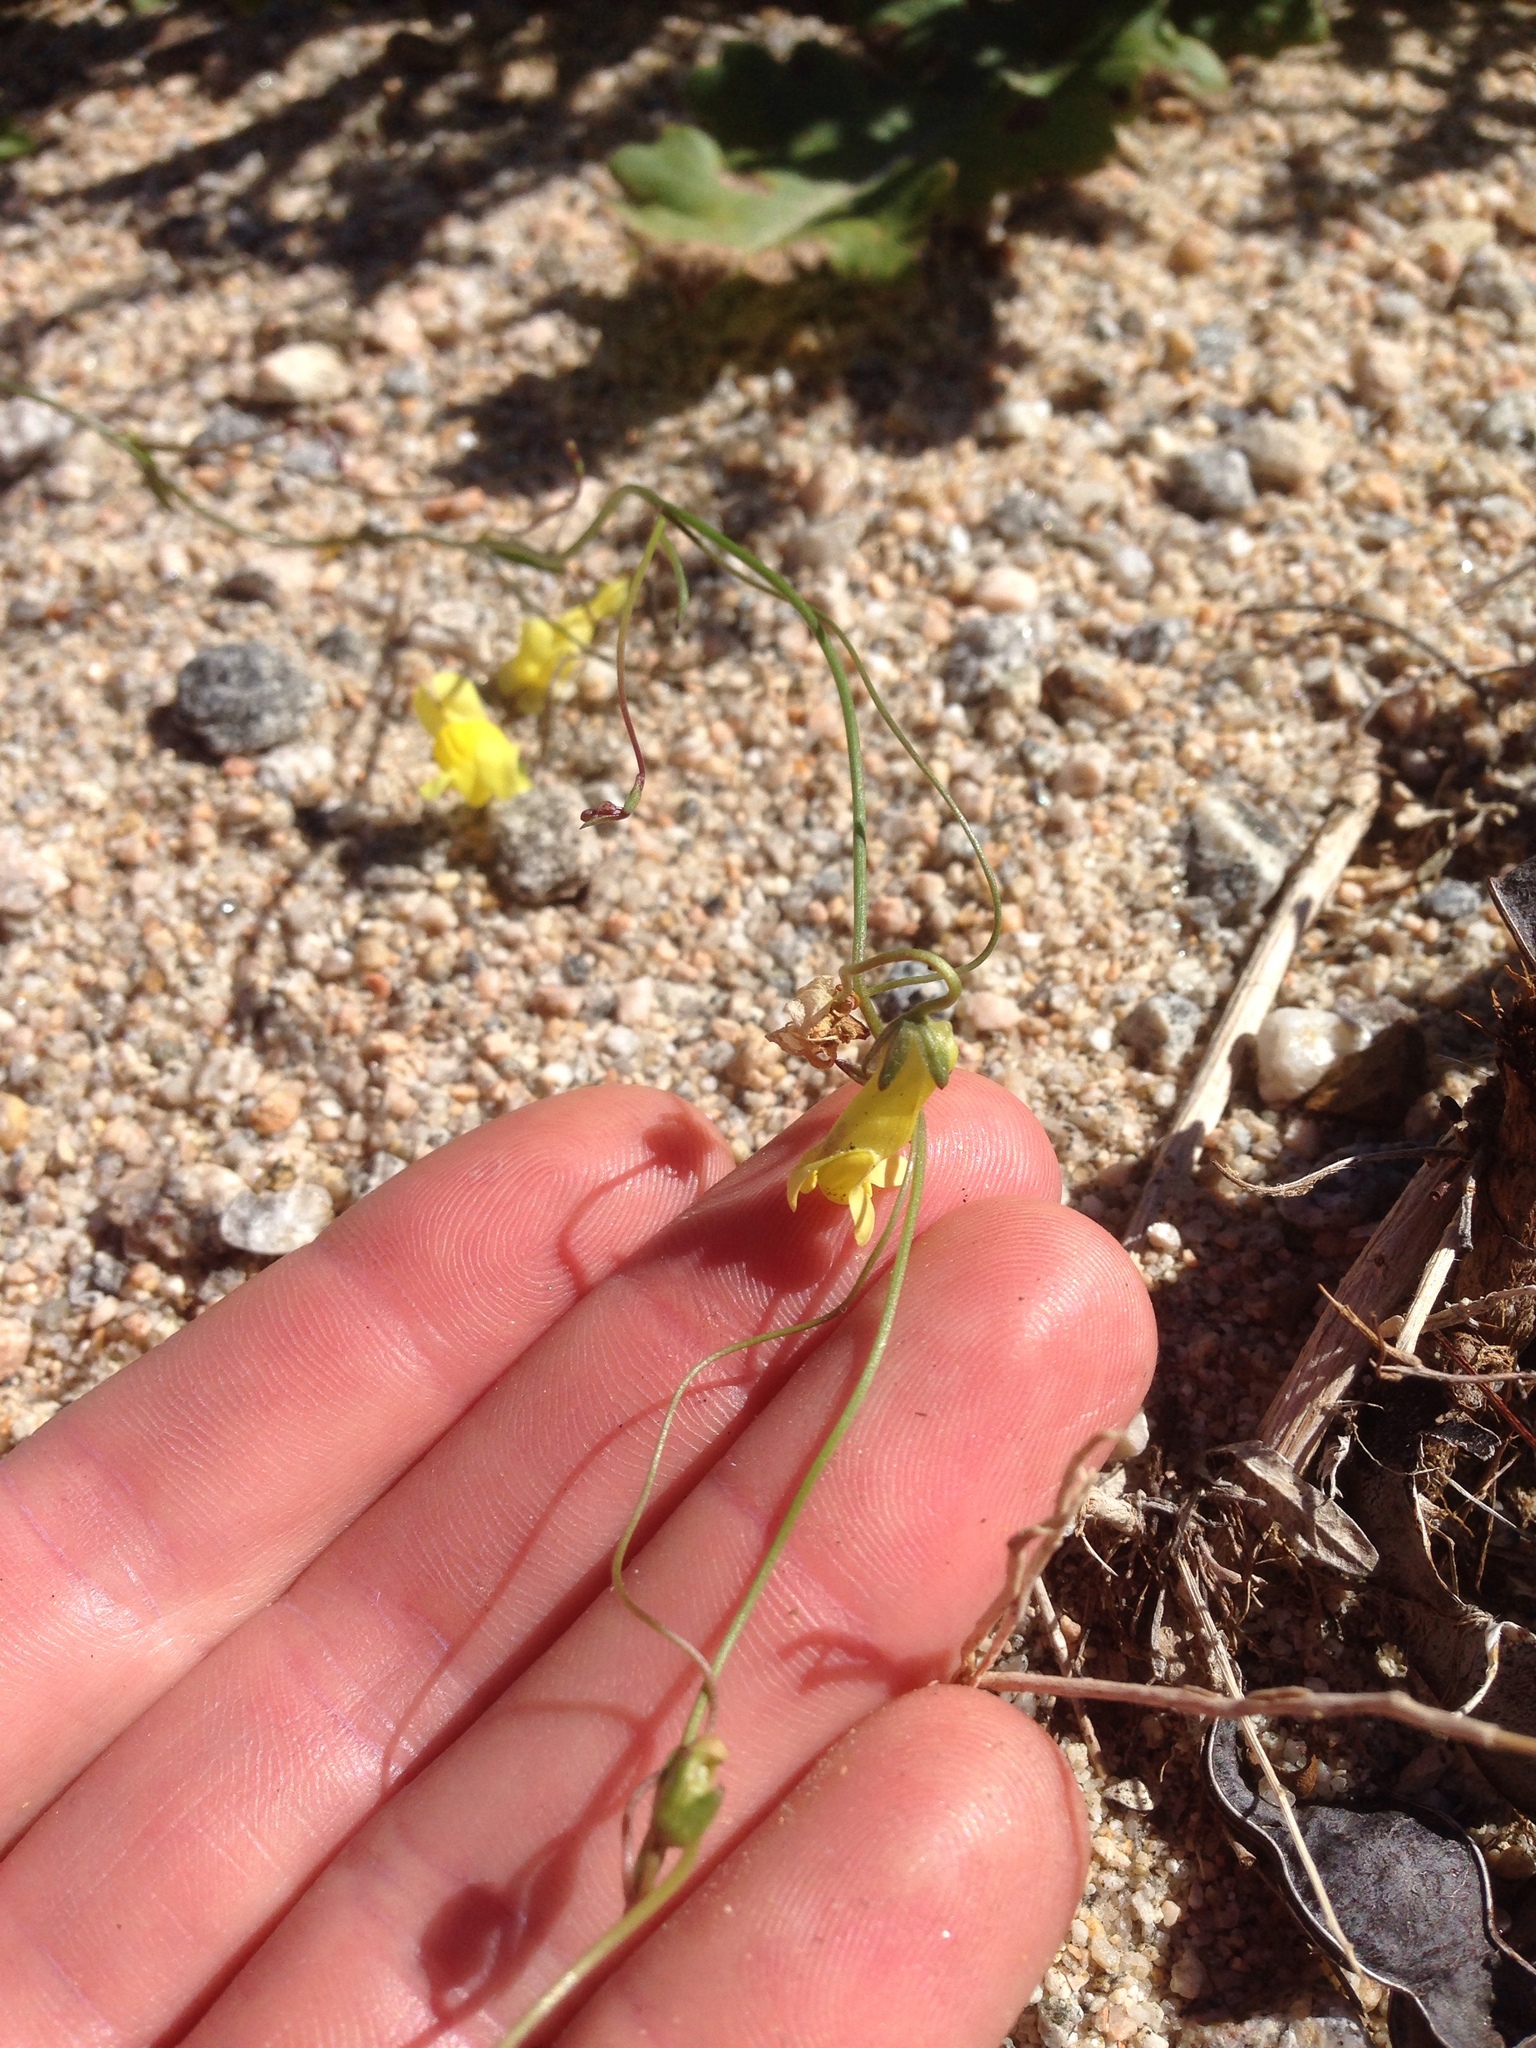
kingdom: Plantae
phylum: Tracheophyta
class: Magnoliopsida
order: Lamiales
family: Plantaginaceae
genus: Neogaerrhinum
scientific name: Neogaerrhinum filipes
